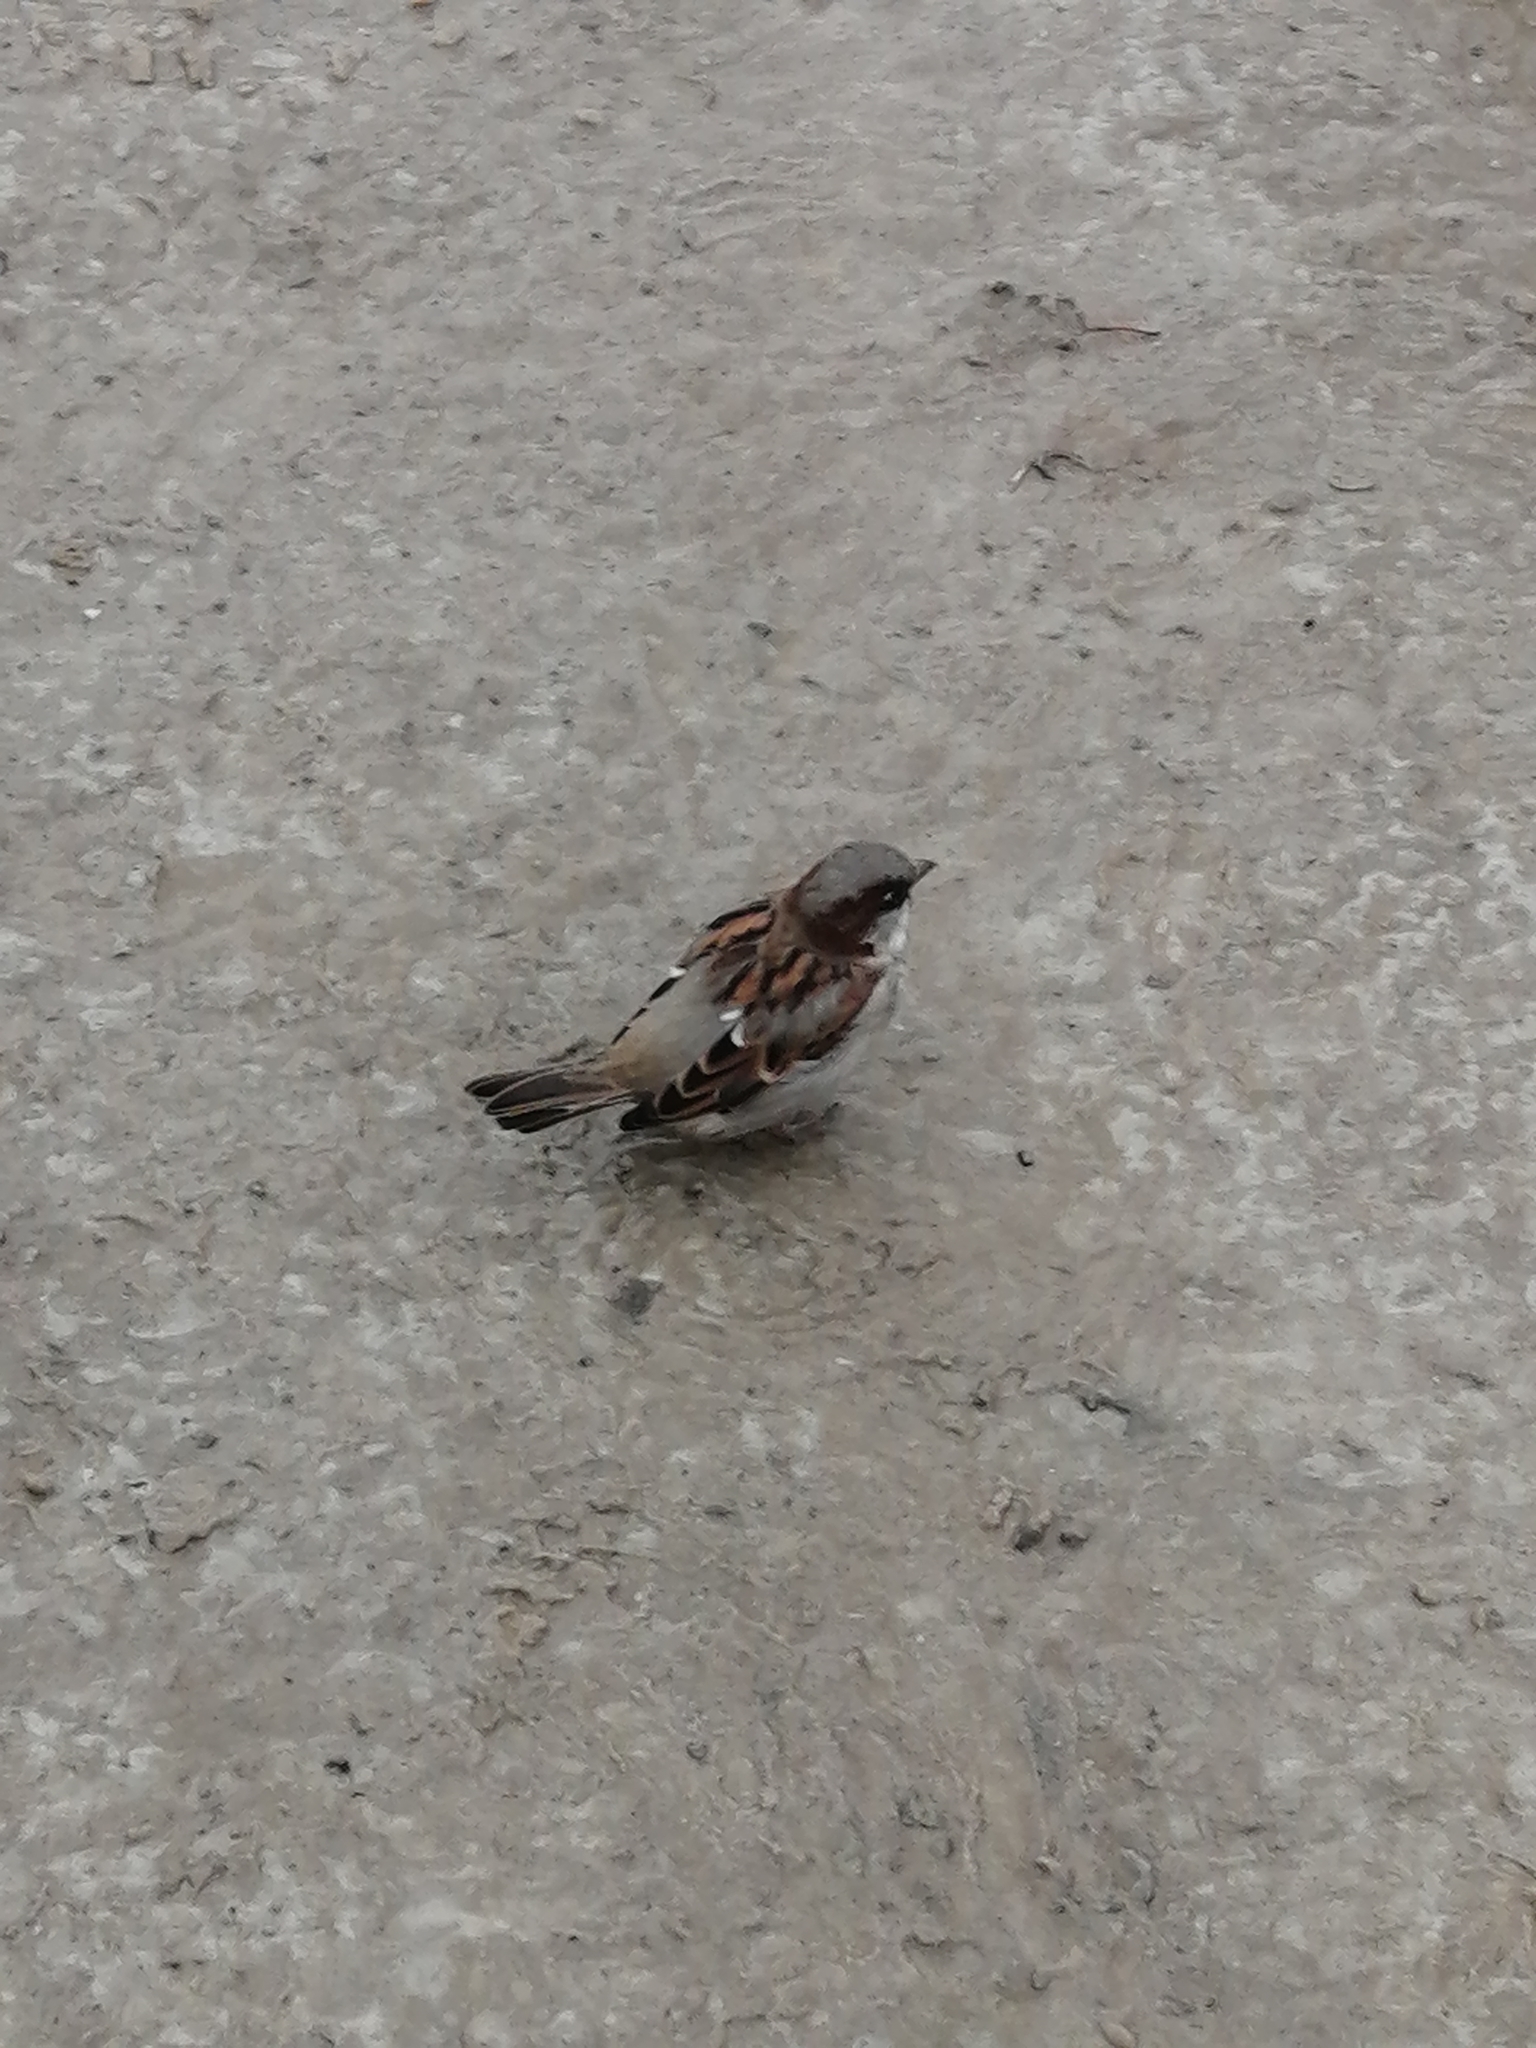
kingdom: Animalia
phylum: Chordata
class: Aves
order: Passeriformes
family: Passeridae
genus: Passer
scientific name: Passer domesticus
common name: House sparrow
